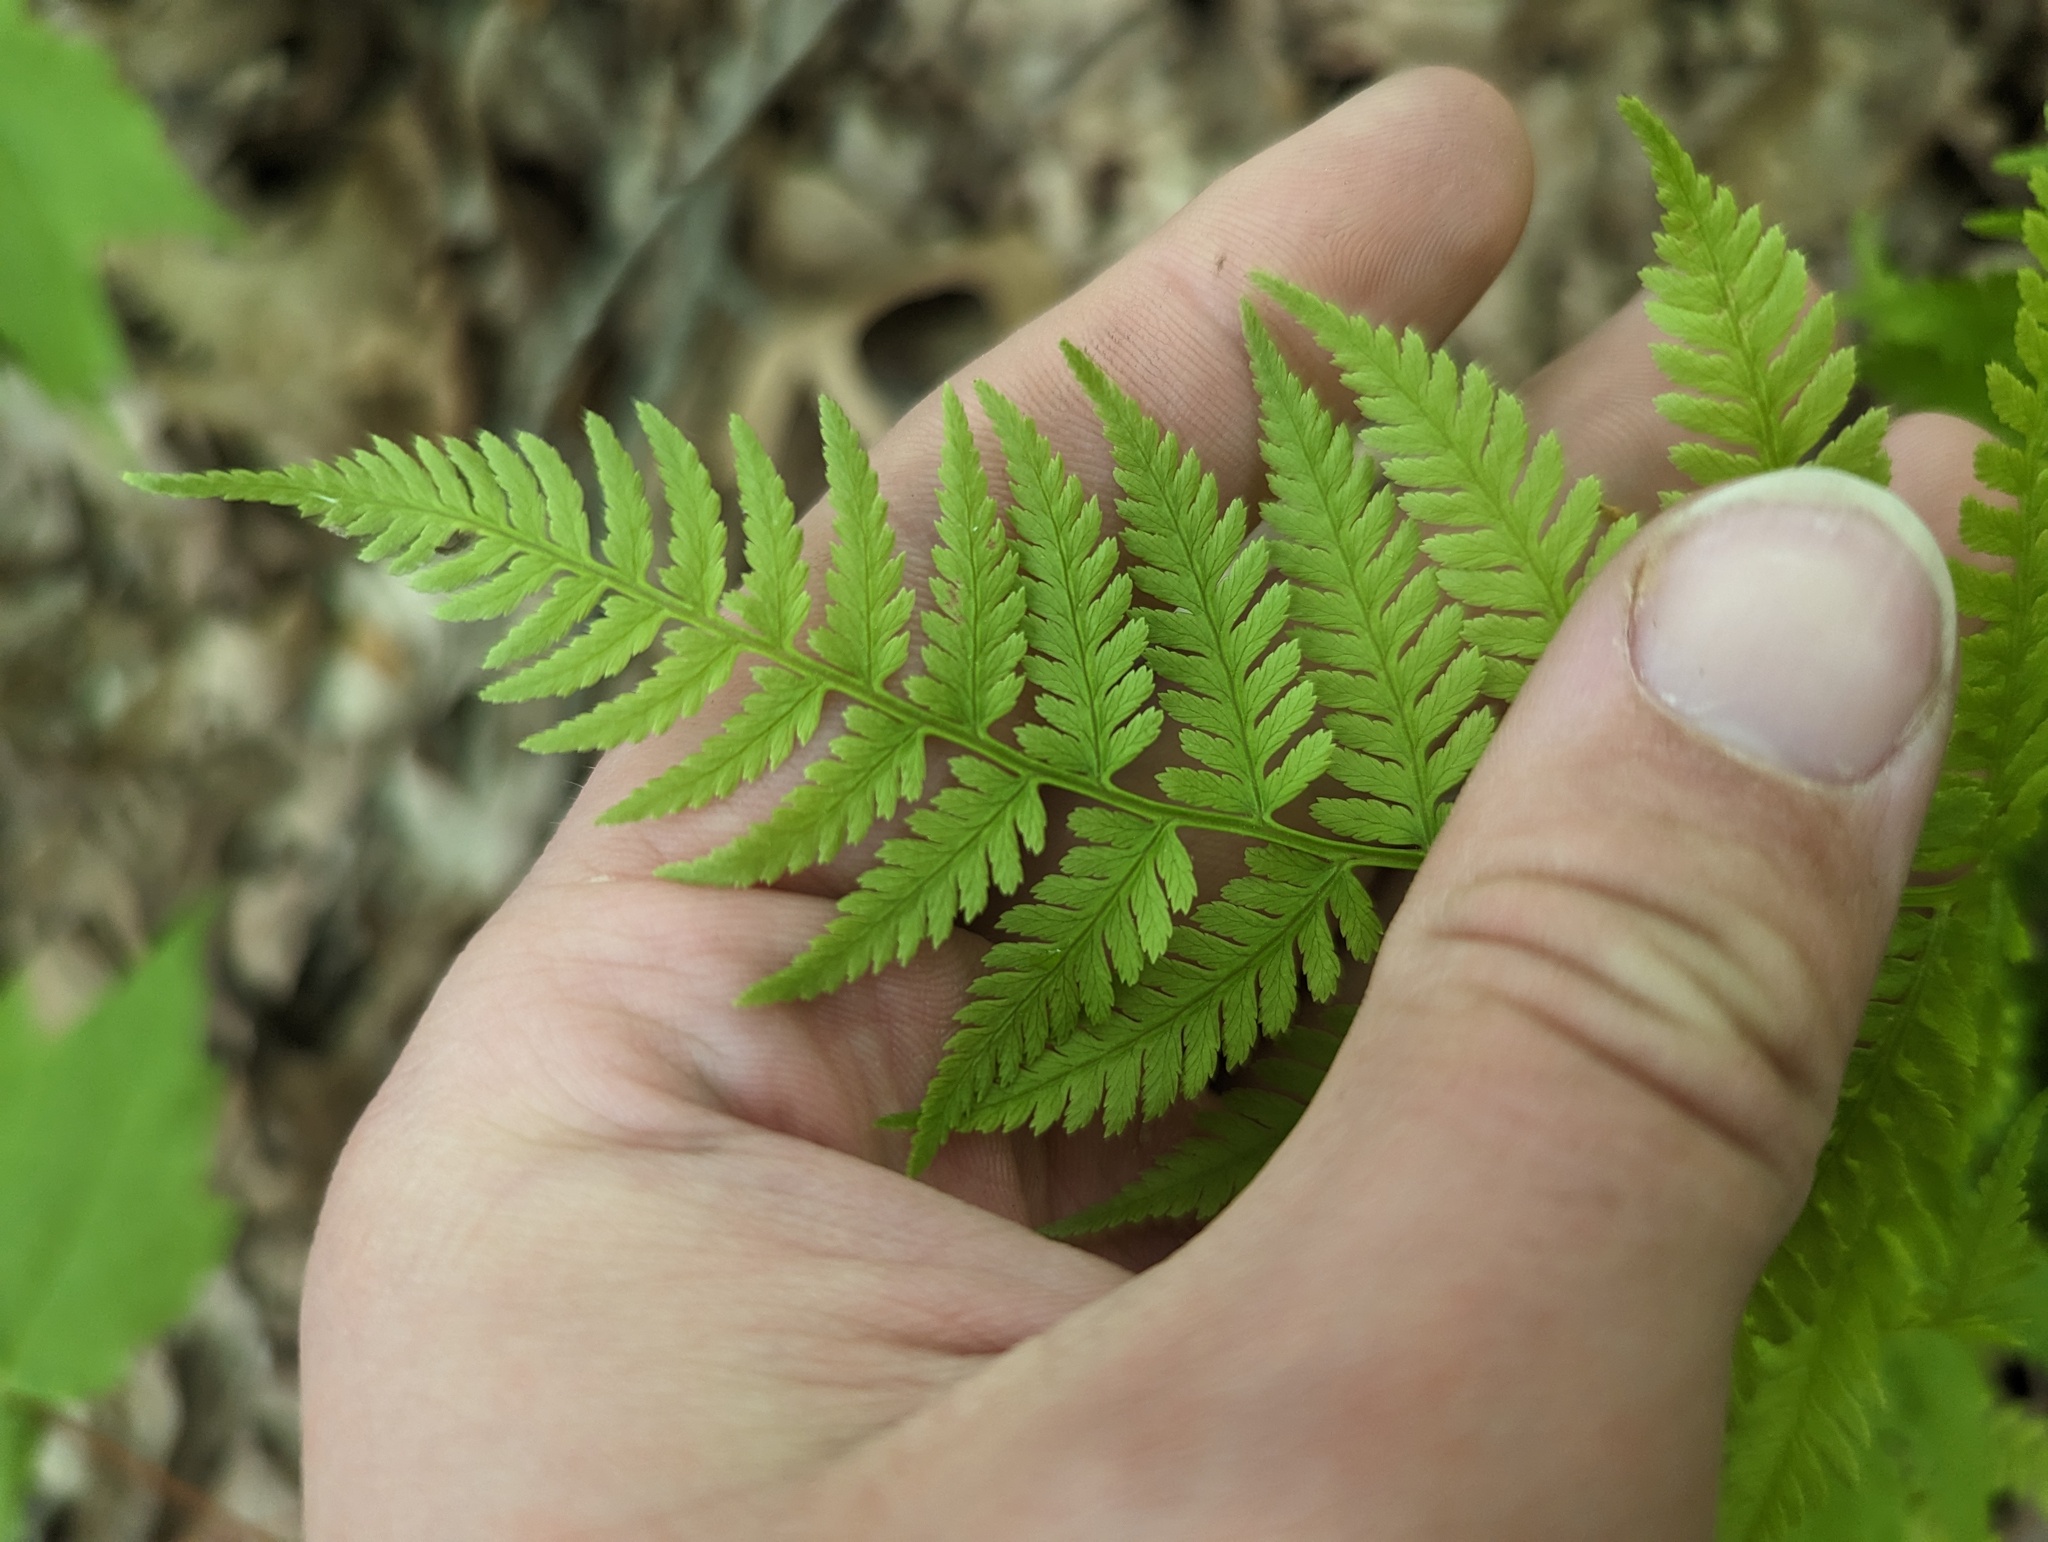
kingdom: Plantae
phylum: Tracheophyta
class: Polypodiopsida
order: Polypodiales
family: Athyriaceae
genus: Athyrium
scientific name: Athyrium asplenioides
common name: Southern lady fern
